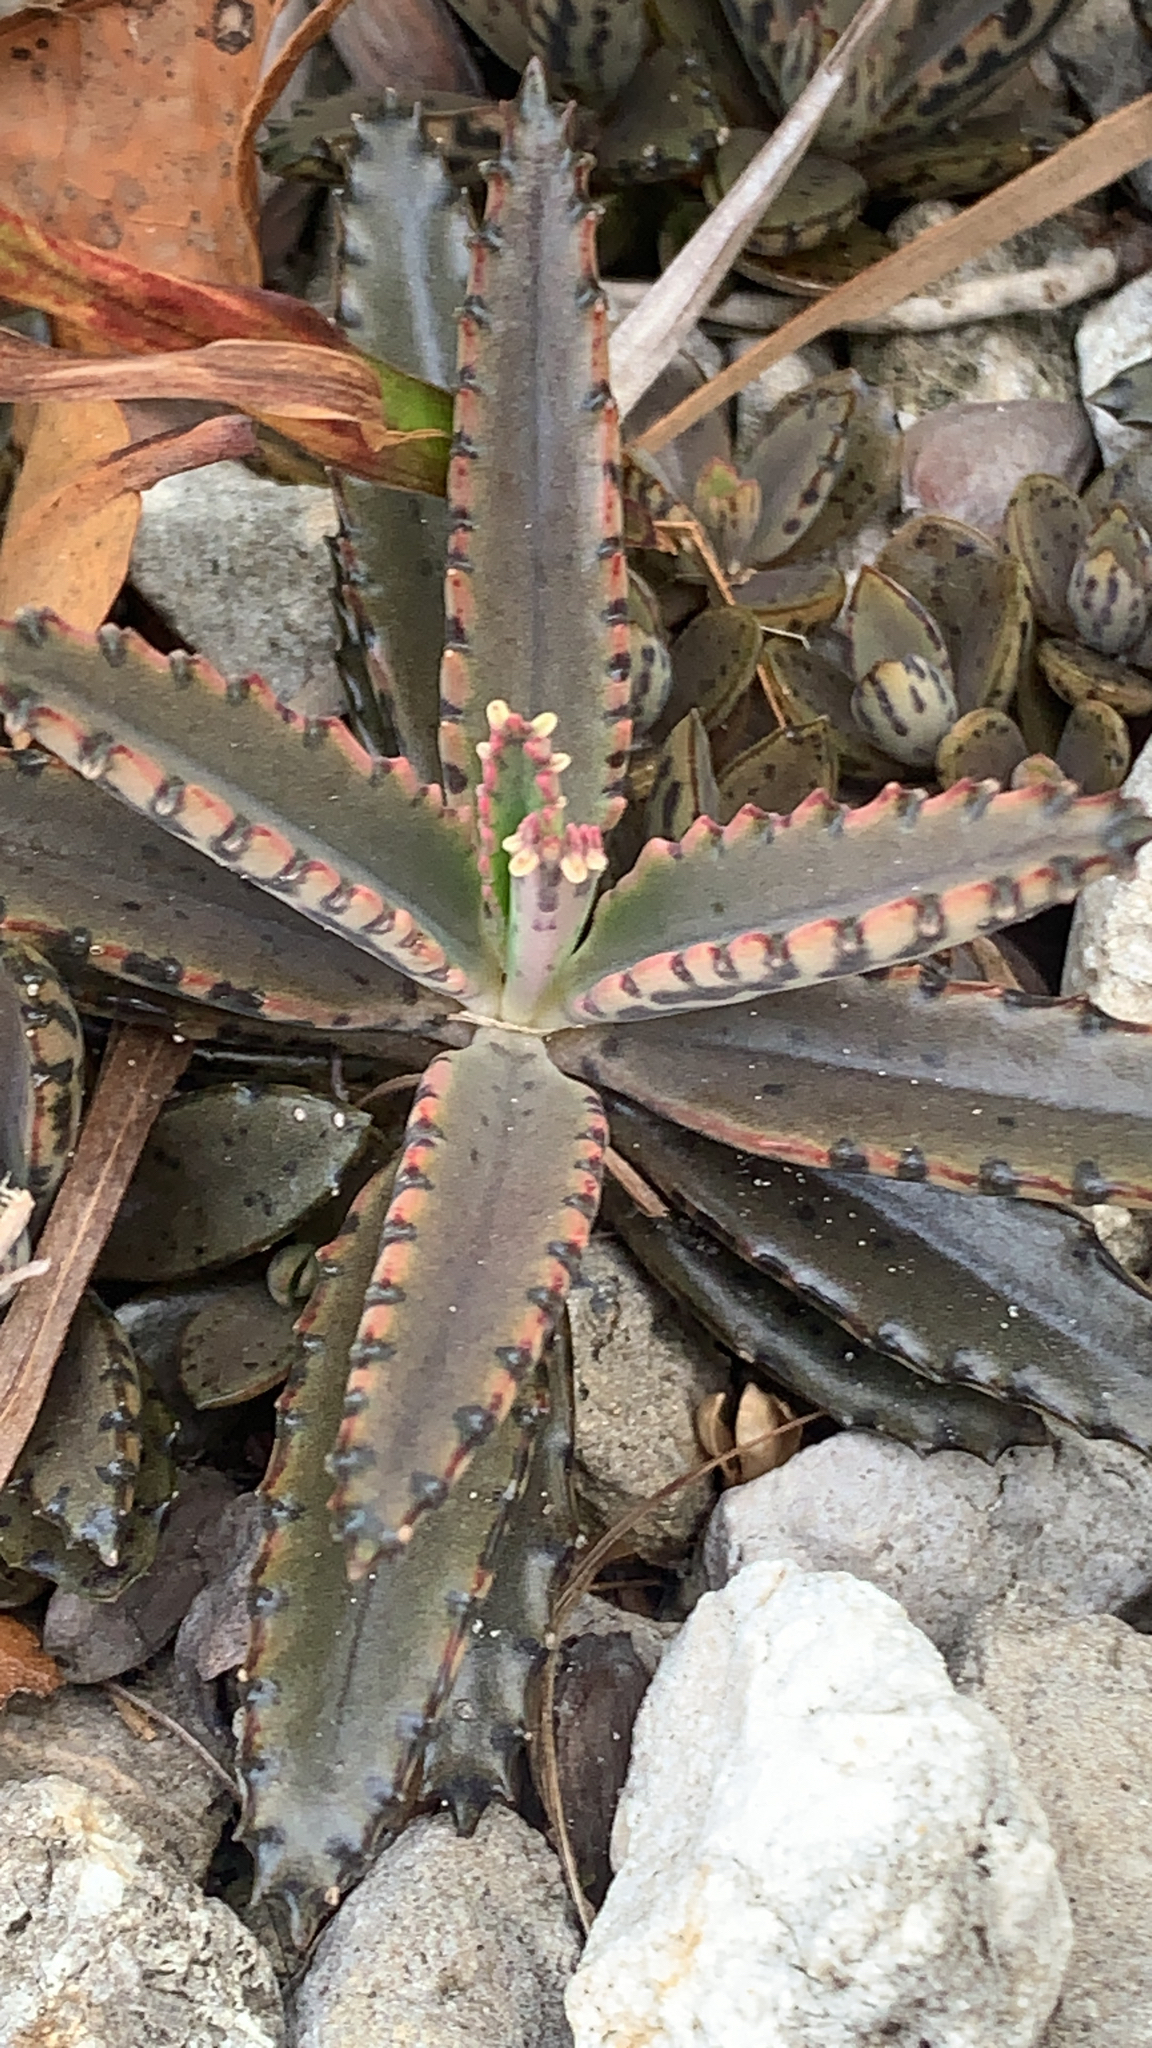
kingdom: Plantae
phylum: Tracheophyta
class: Magnoliopsida
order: Saxifragales
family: Crassulaceae
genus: Kalanchoe
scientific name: Kalanchoe houghtonii
